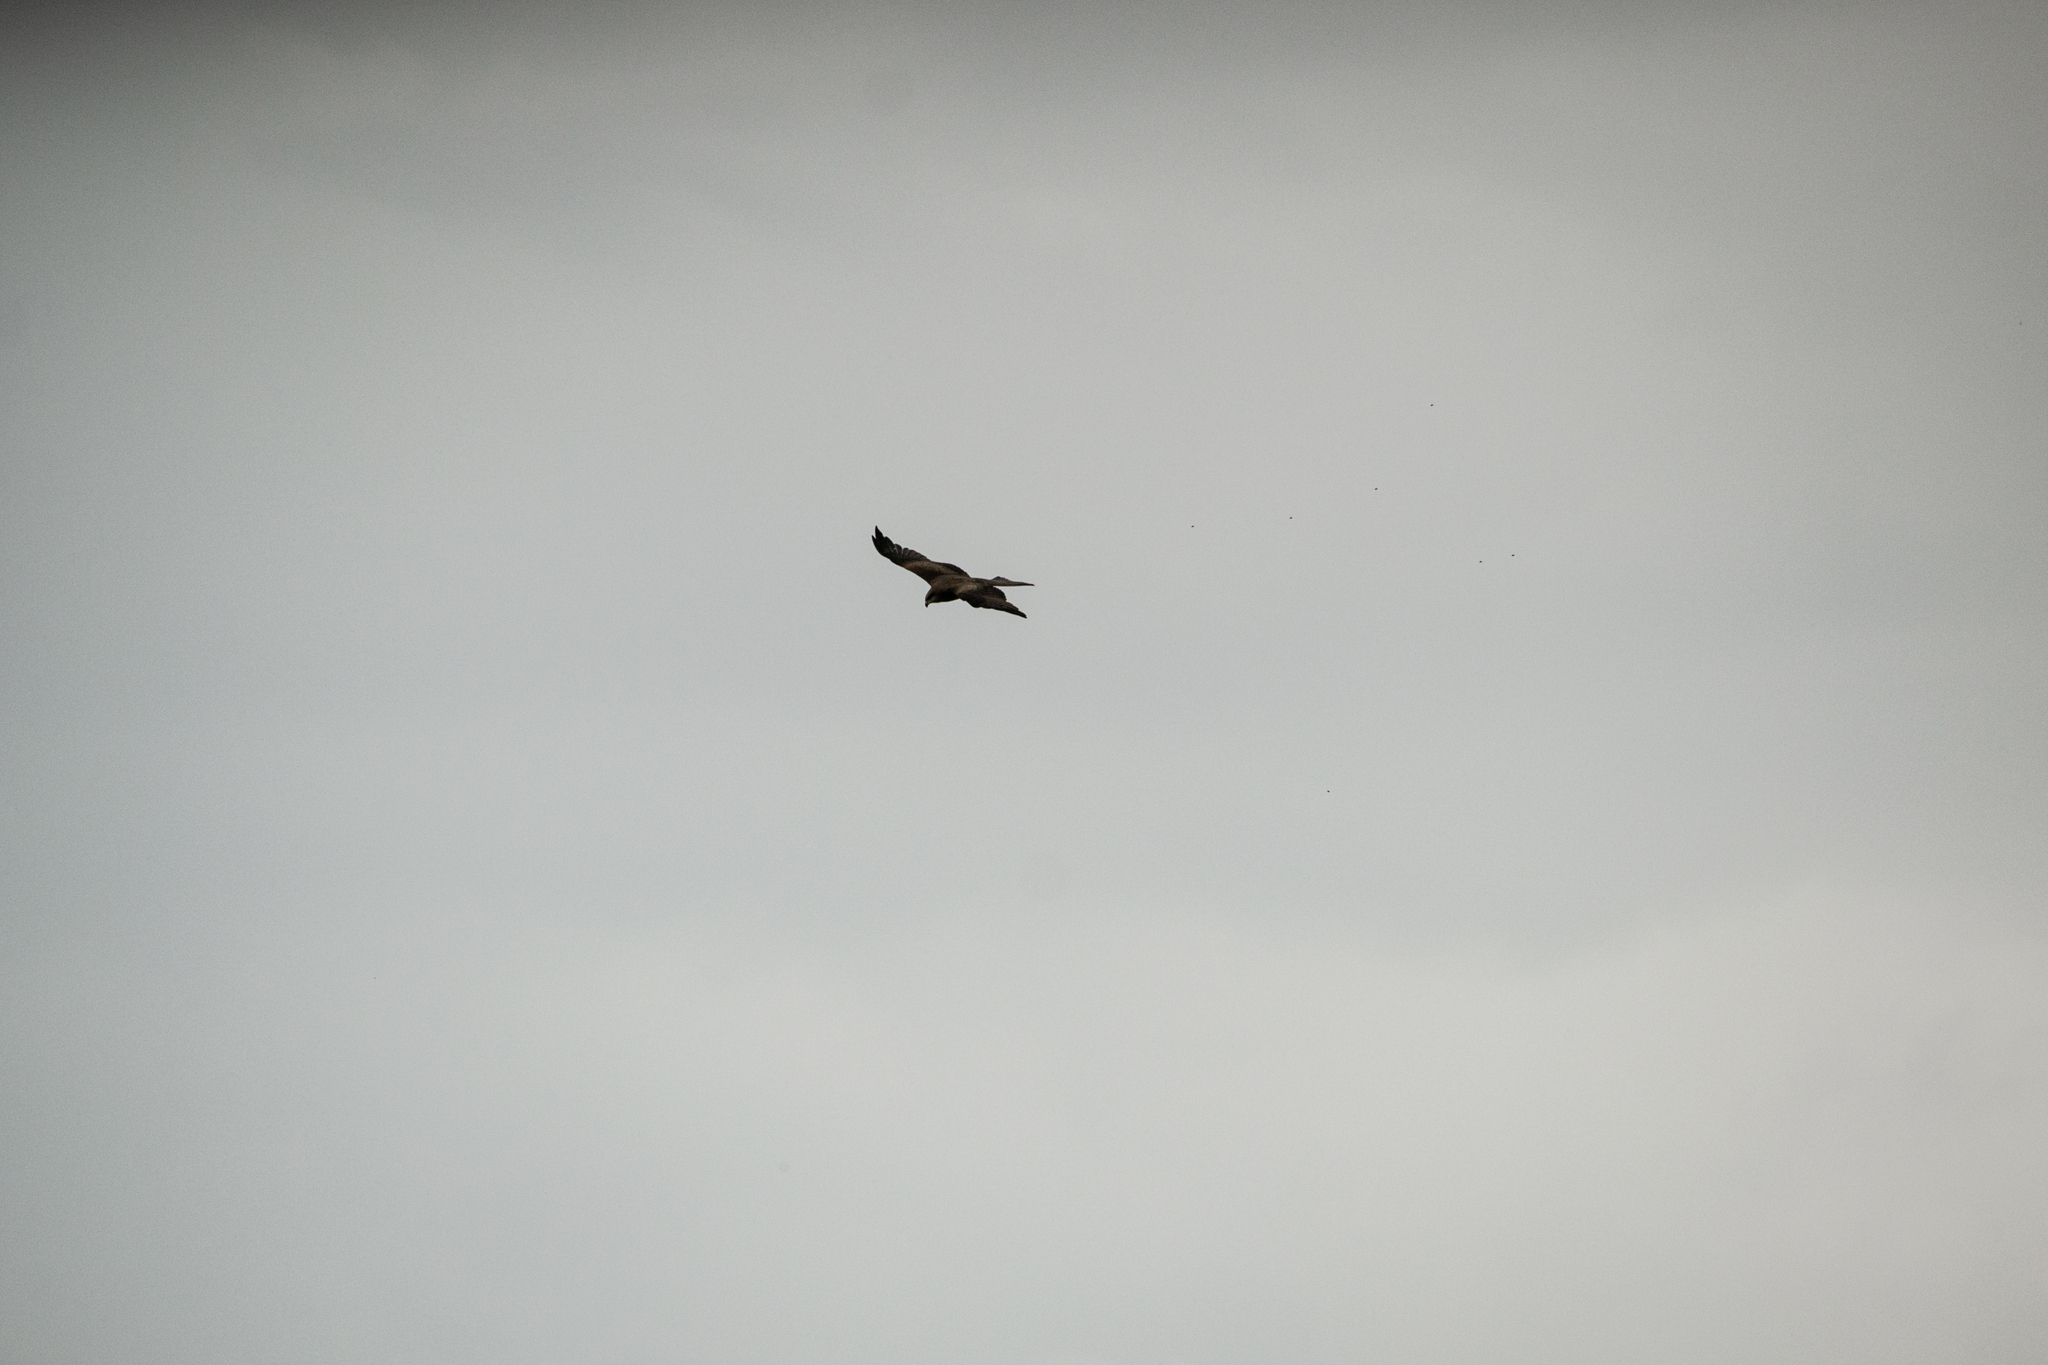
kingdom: Animalia
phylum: Chordata
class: Aves
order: Accipitriformes
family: Accipitridae
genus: Milvus
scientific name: Milvus migrans
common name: Black kite
